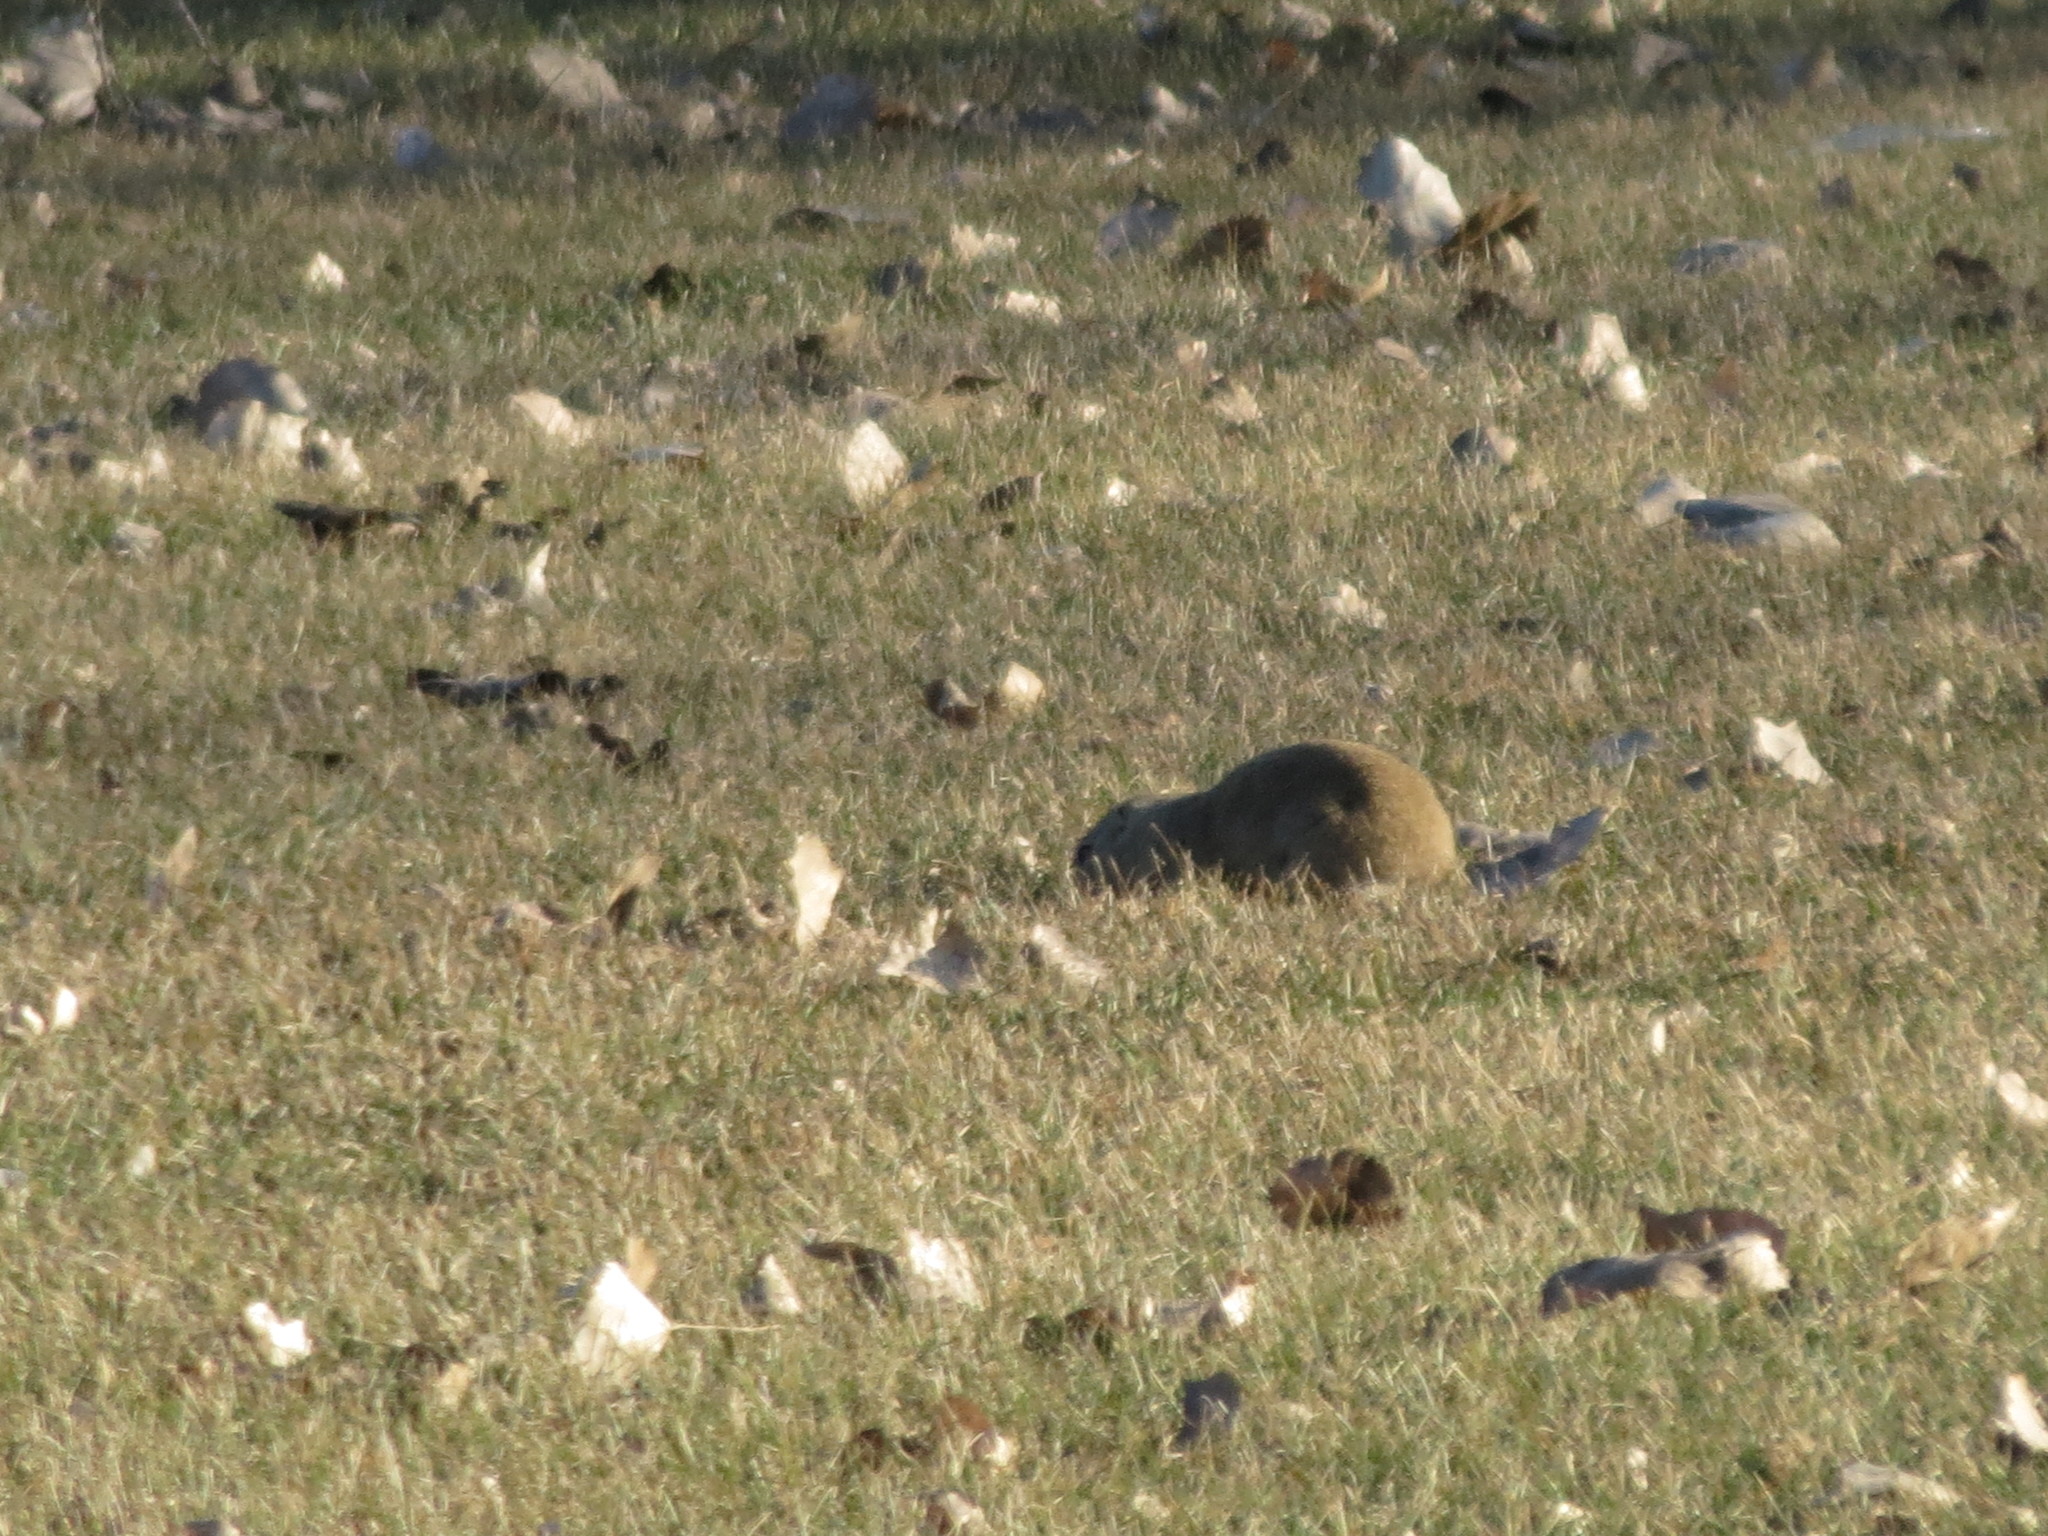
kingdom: Animalia
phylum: Chordata
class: Mammalia
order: Rodentia
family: Sciuridae
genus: Urocitellus
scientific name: Urocitellus richardsonii
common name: Richardson's ground squirrel
